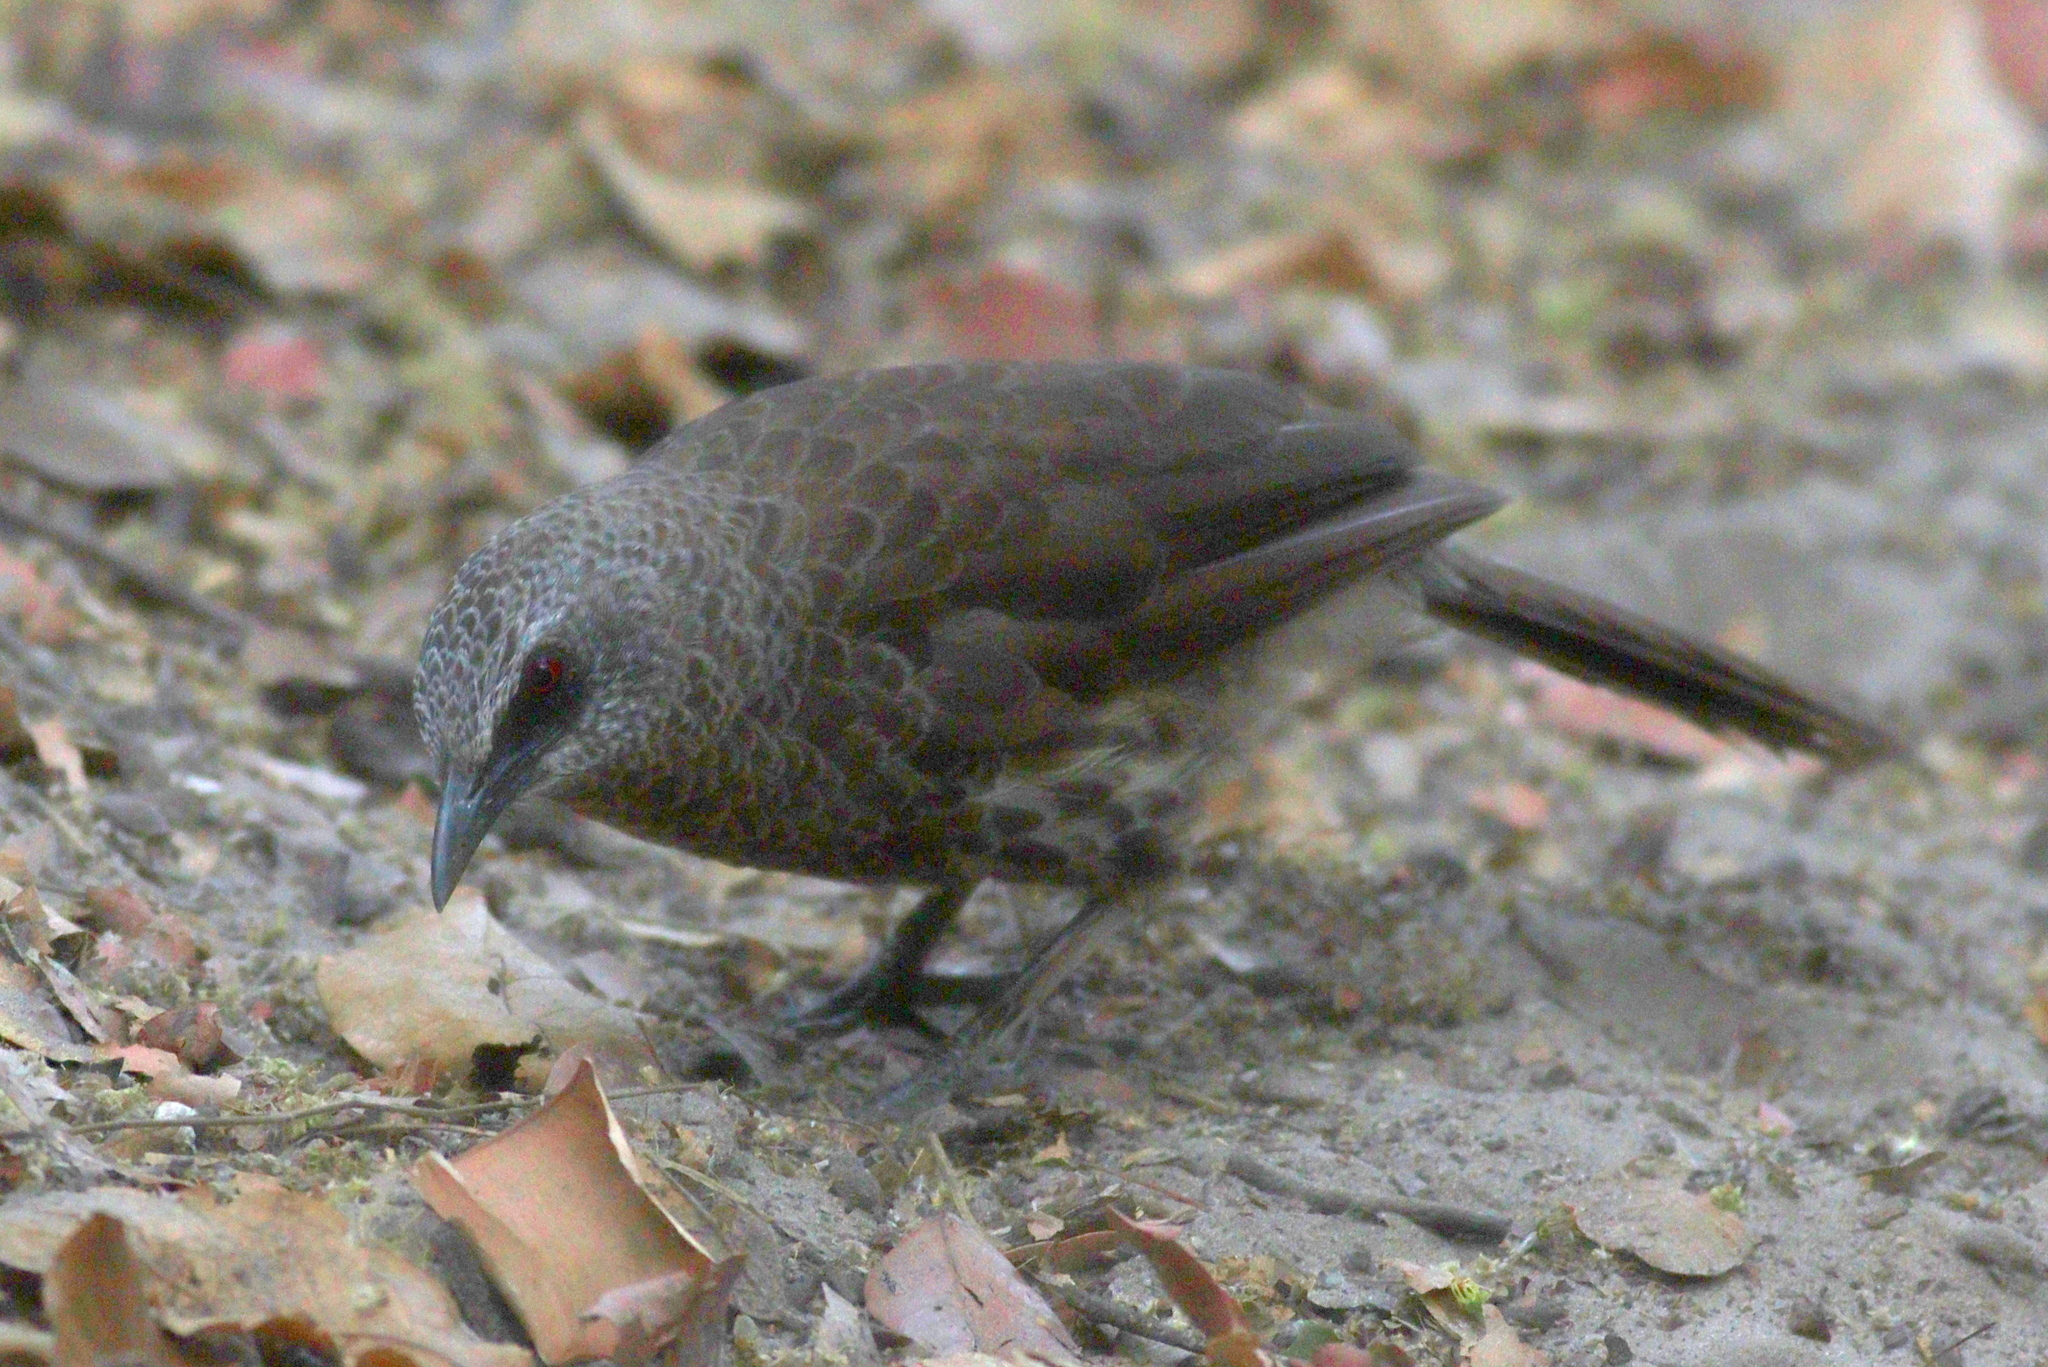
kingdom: Animalia
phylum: Chordata
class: Aves
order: Passeriformes
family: Leiothrichidae
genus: Turdoides
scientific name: Turdoides hartlaubii
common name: Hartlaub's babbler
